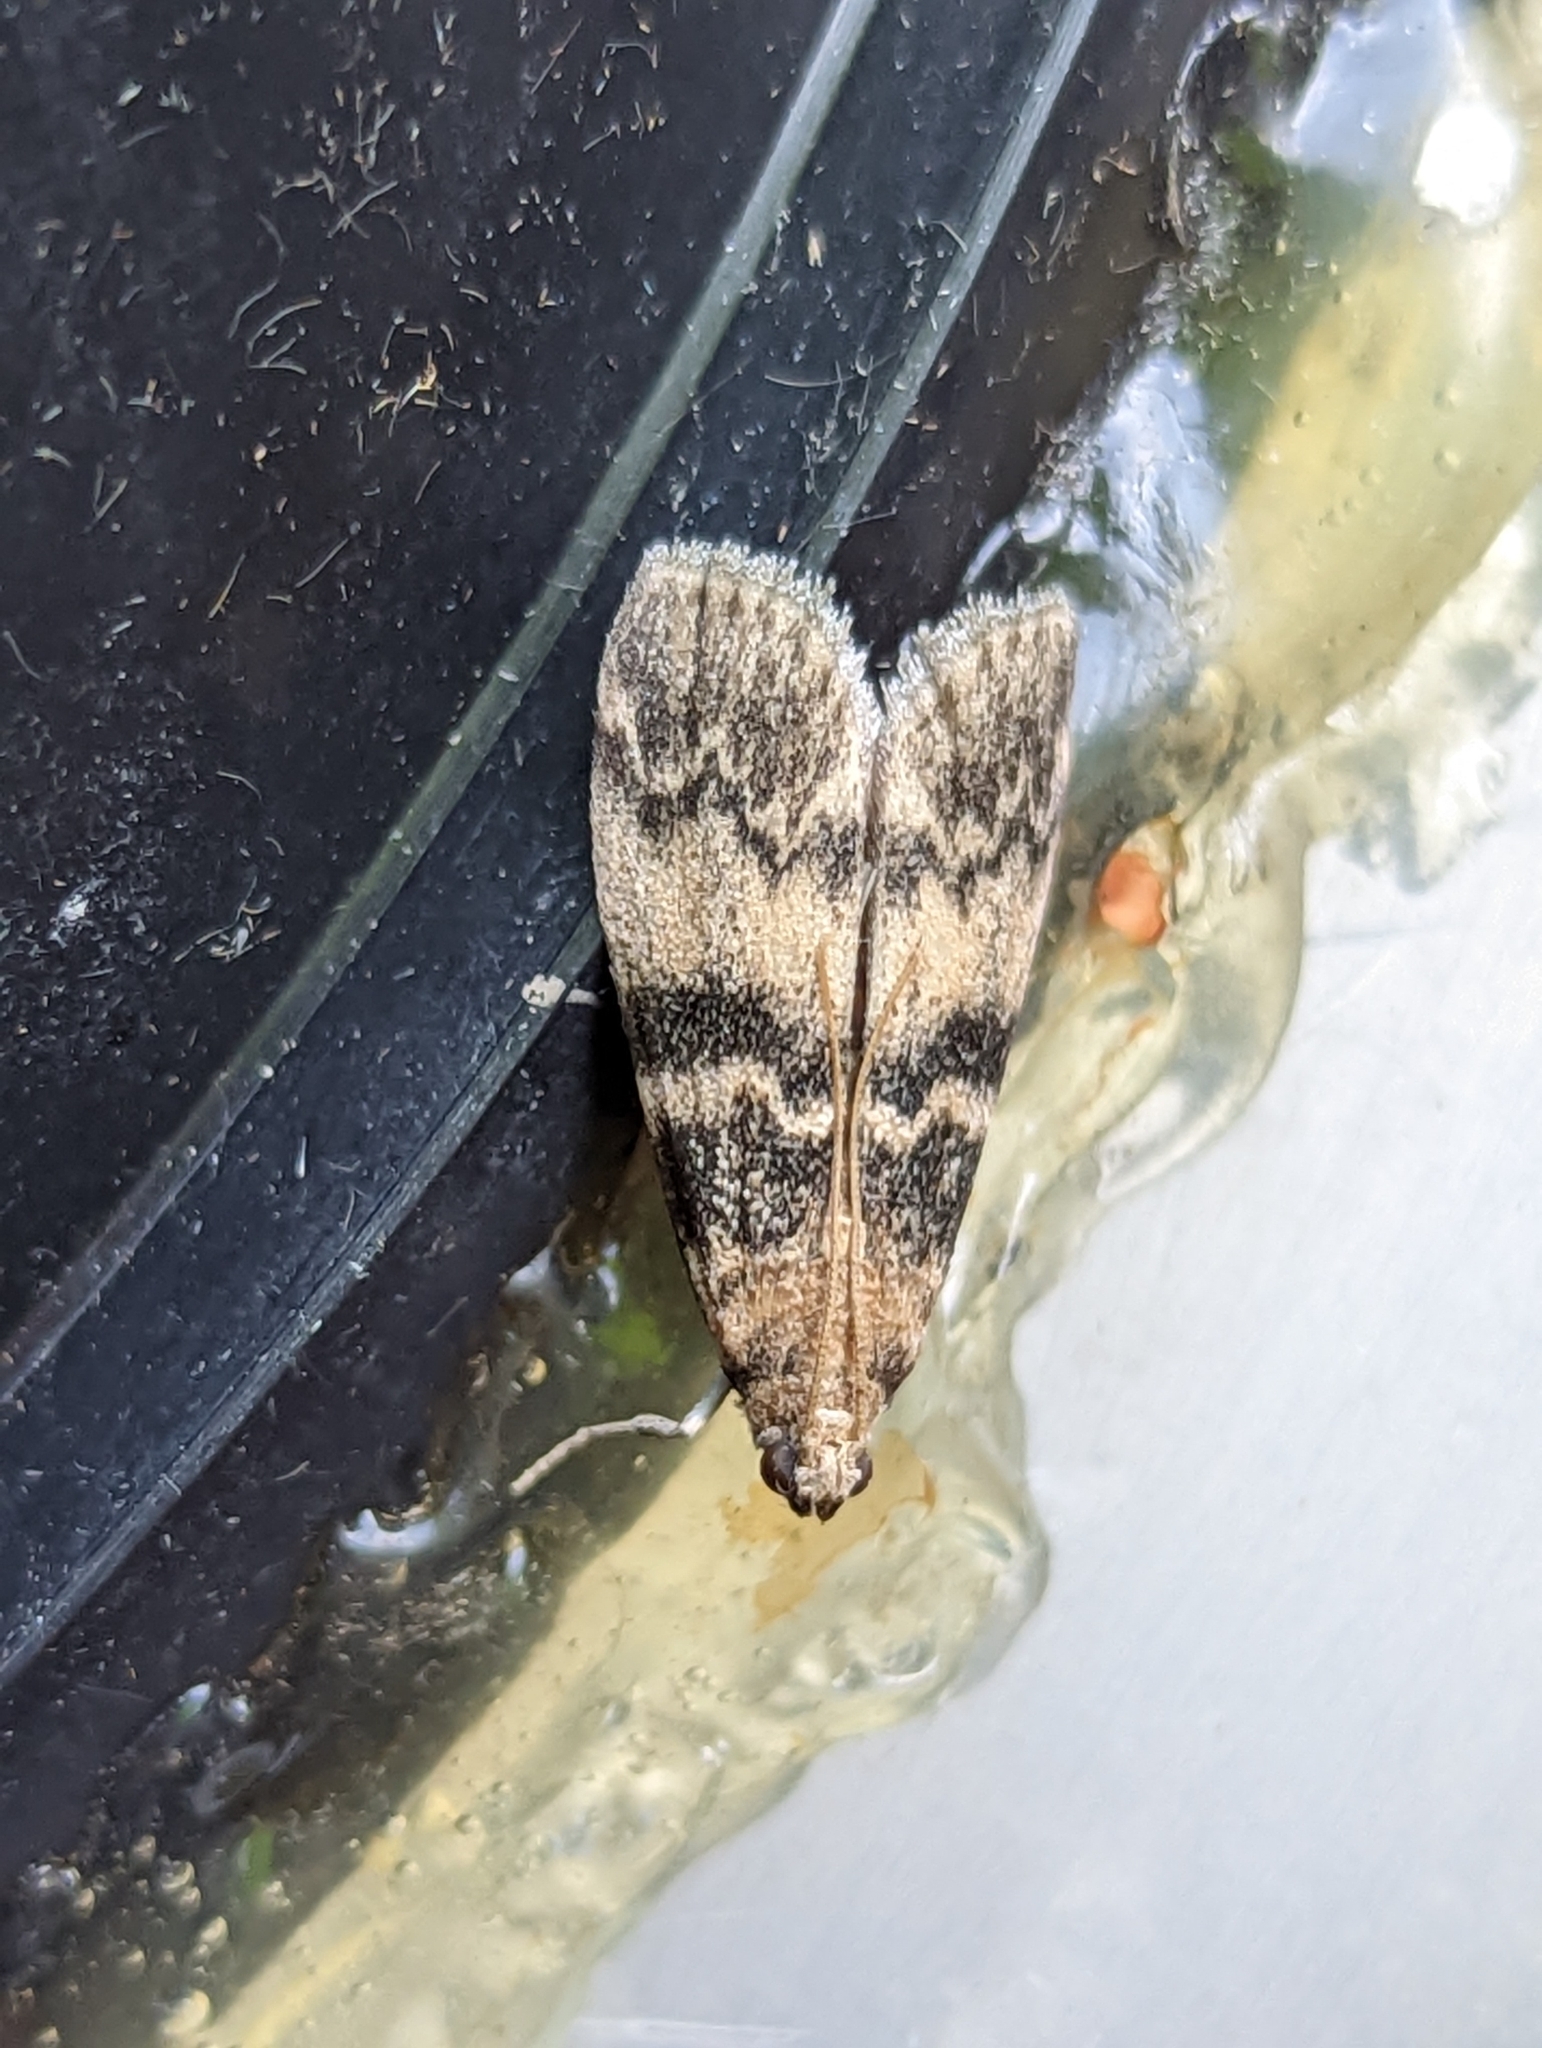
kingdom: Animalia
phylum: Arthropoda
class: Insecta
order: Lepidoptera
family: Pyralidae
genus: Euzophera
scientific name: Euzophera pinguis
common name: Ash-bark knot-horn
